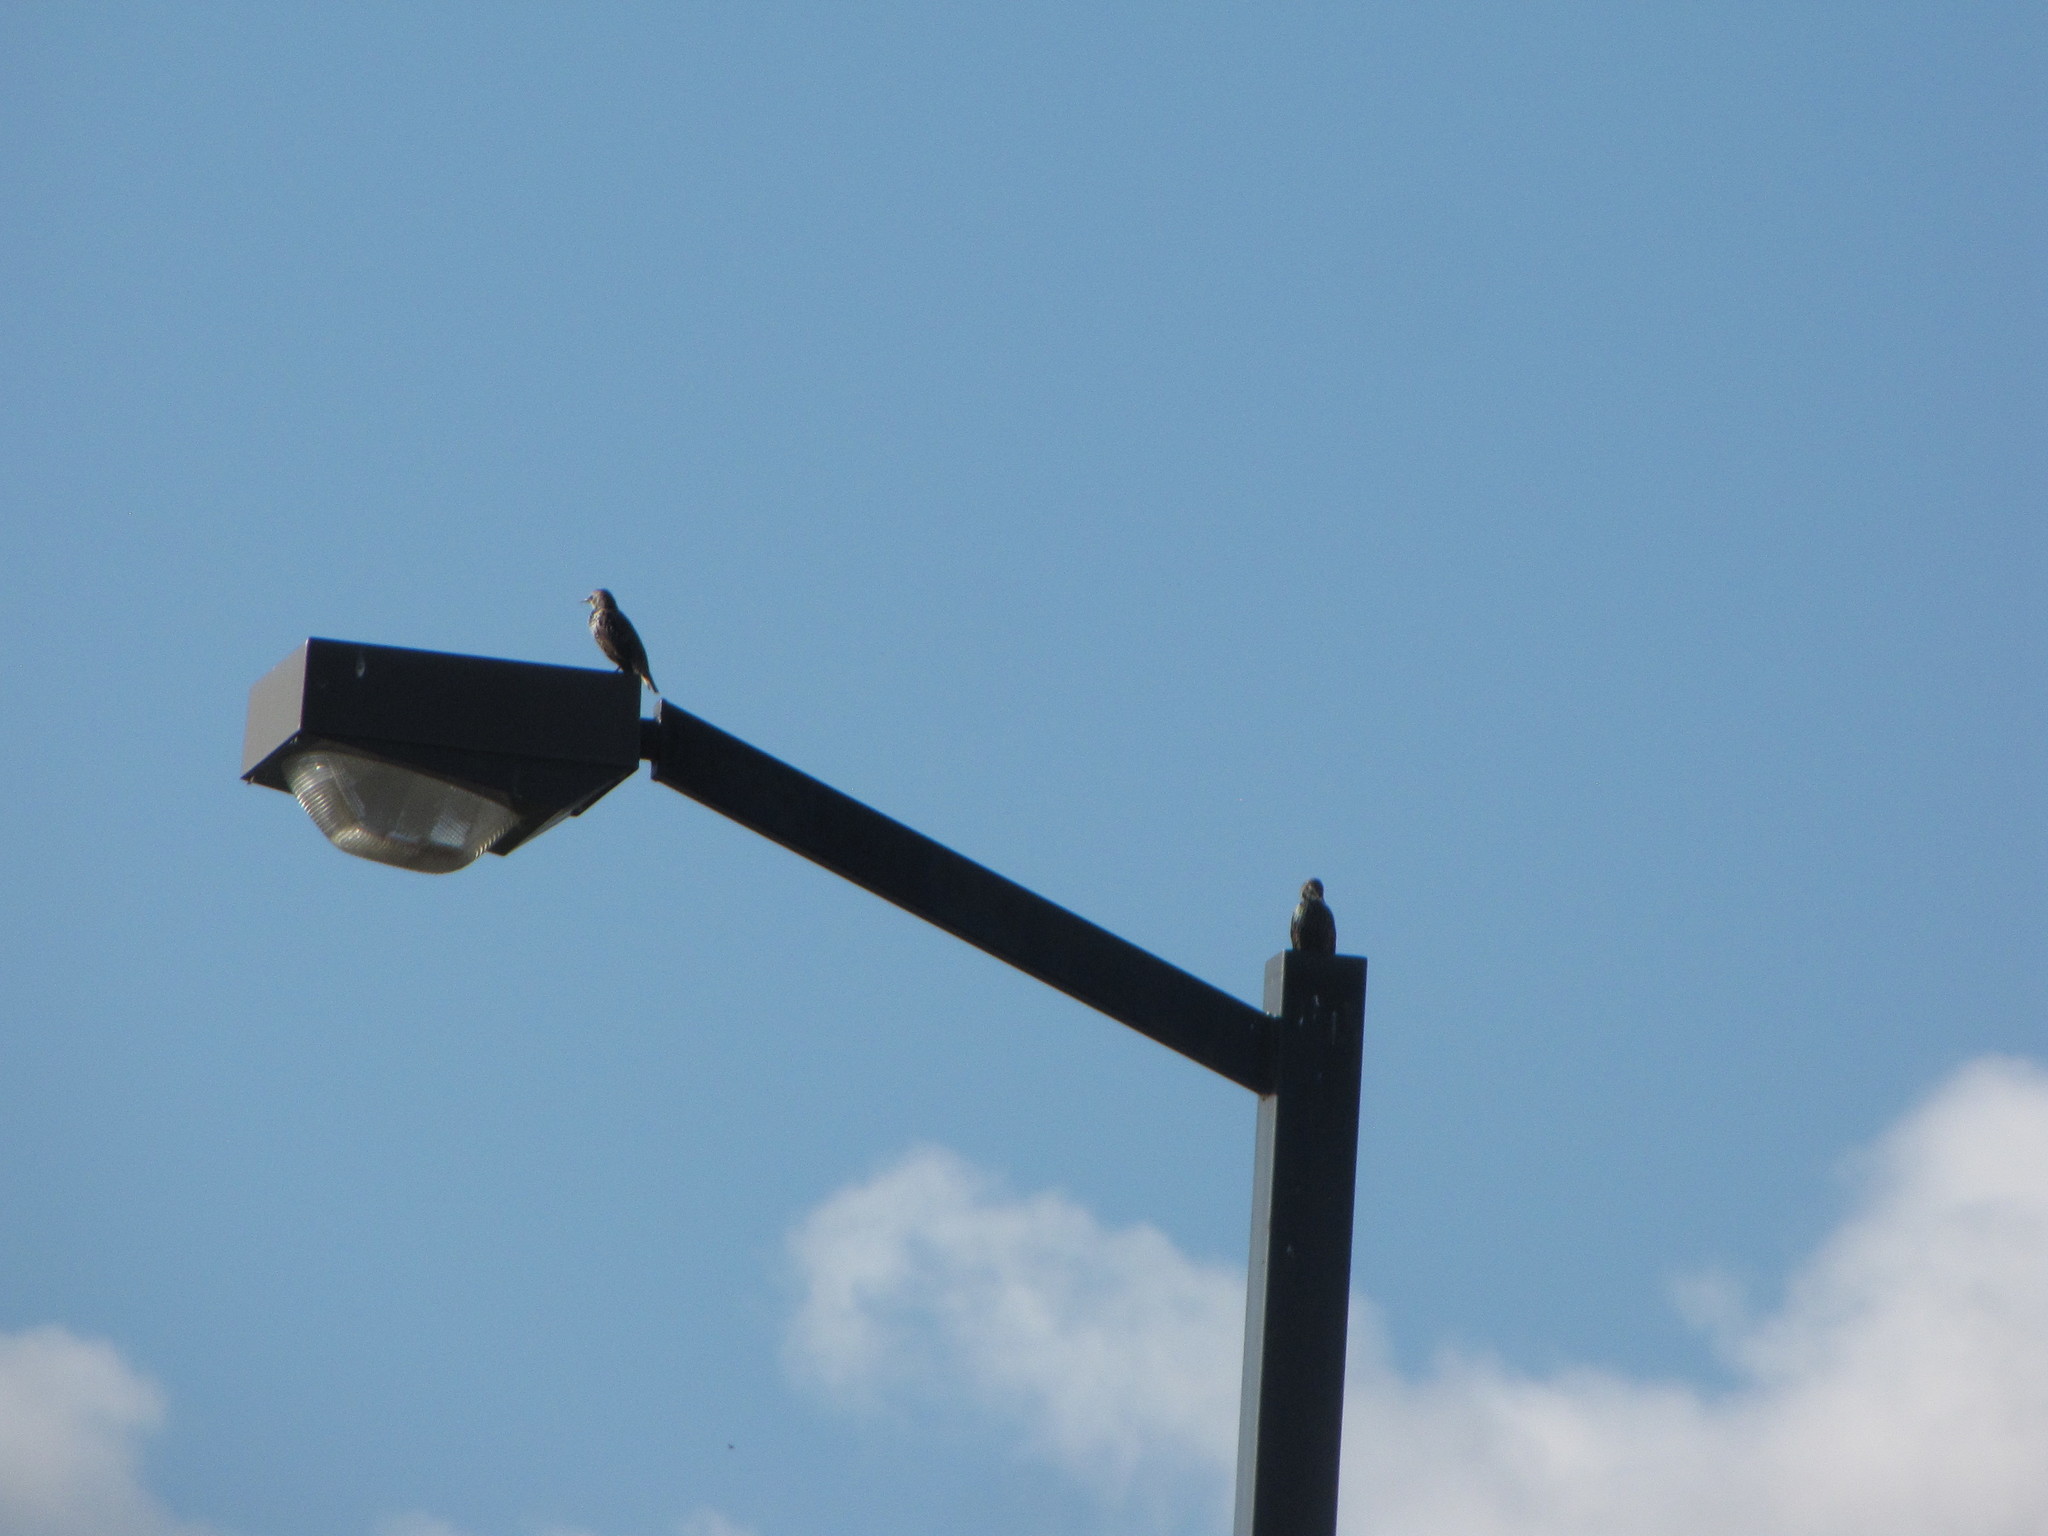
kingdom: Animalia
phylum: Chordata
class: Aves
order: Passeriformes
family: Sturnidae
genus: Sturnus
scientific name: Sturnus vulgaris
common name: Common starling
